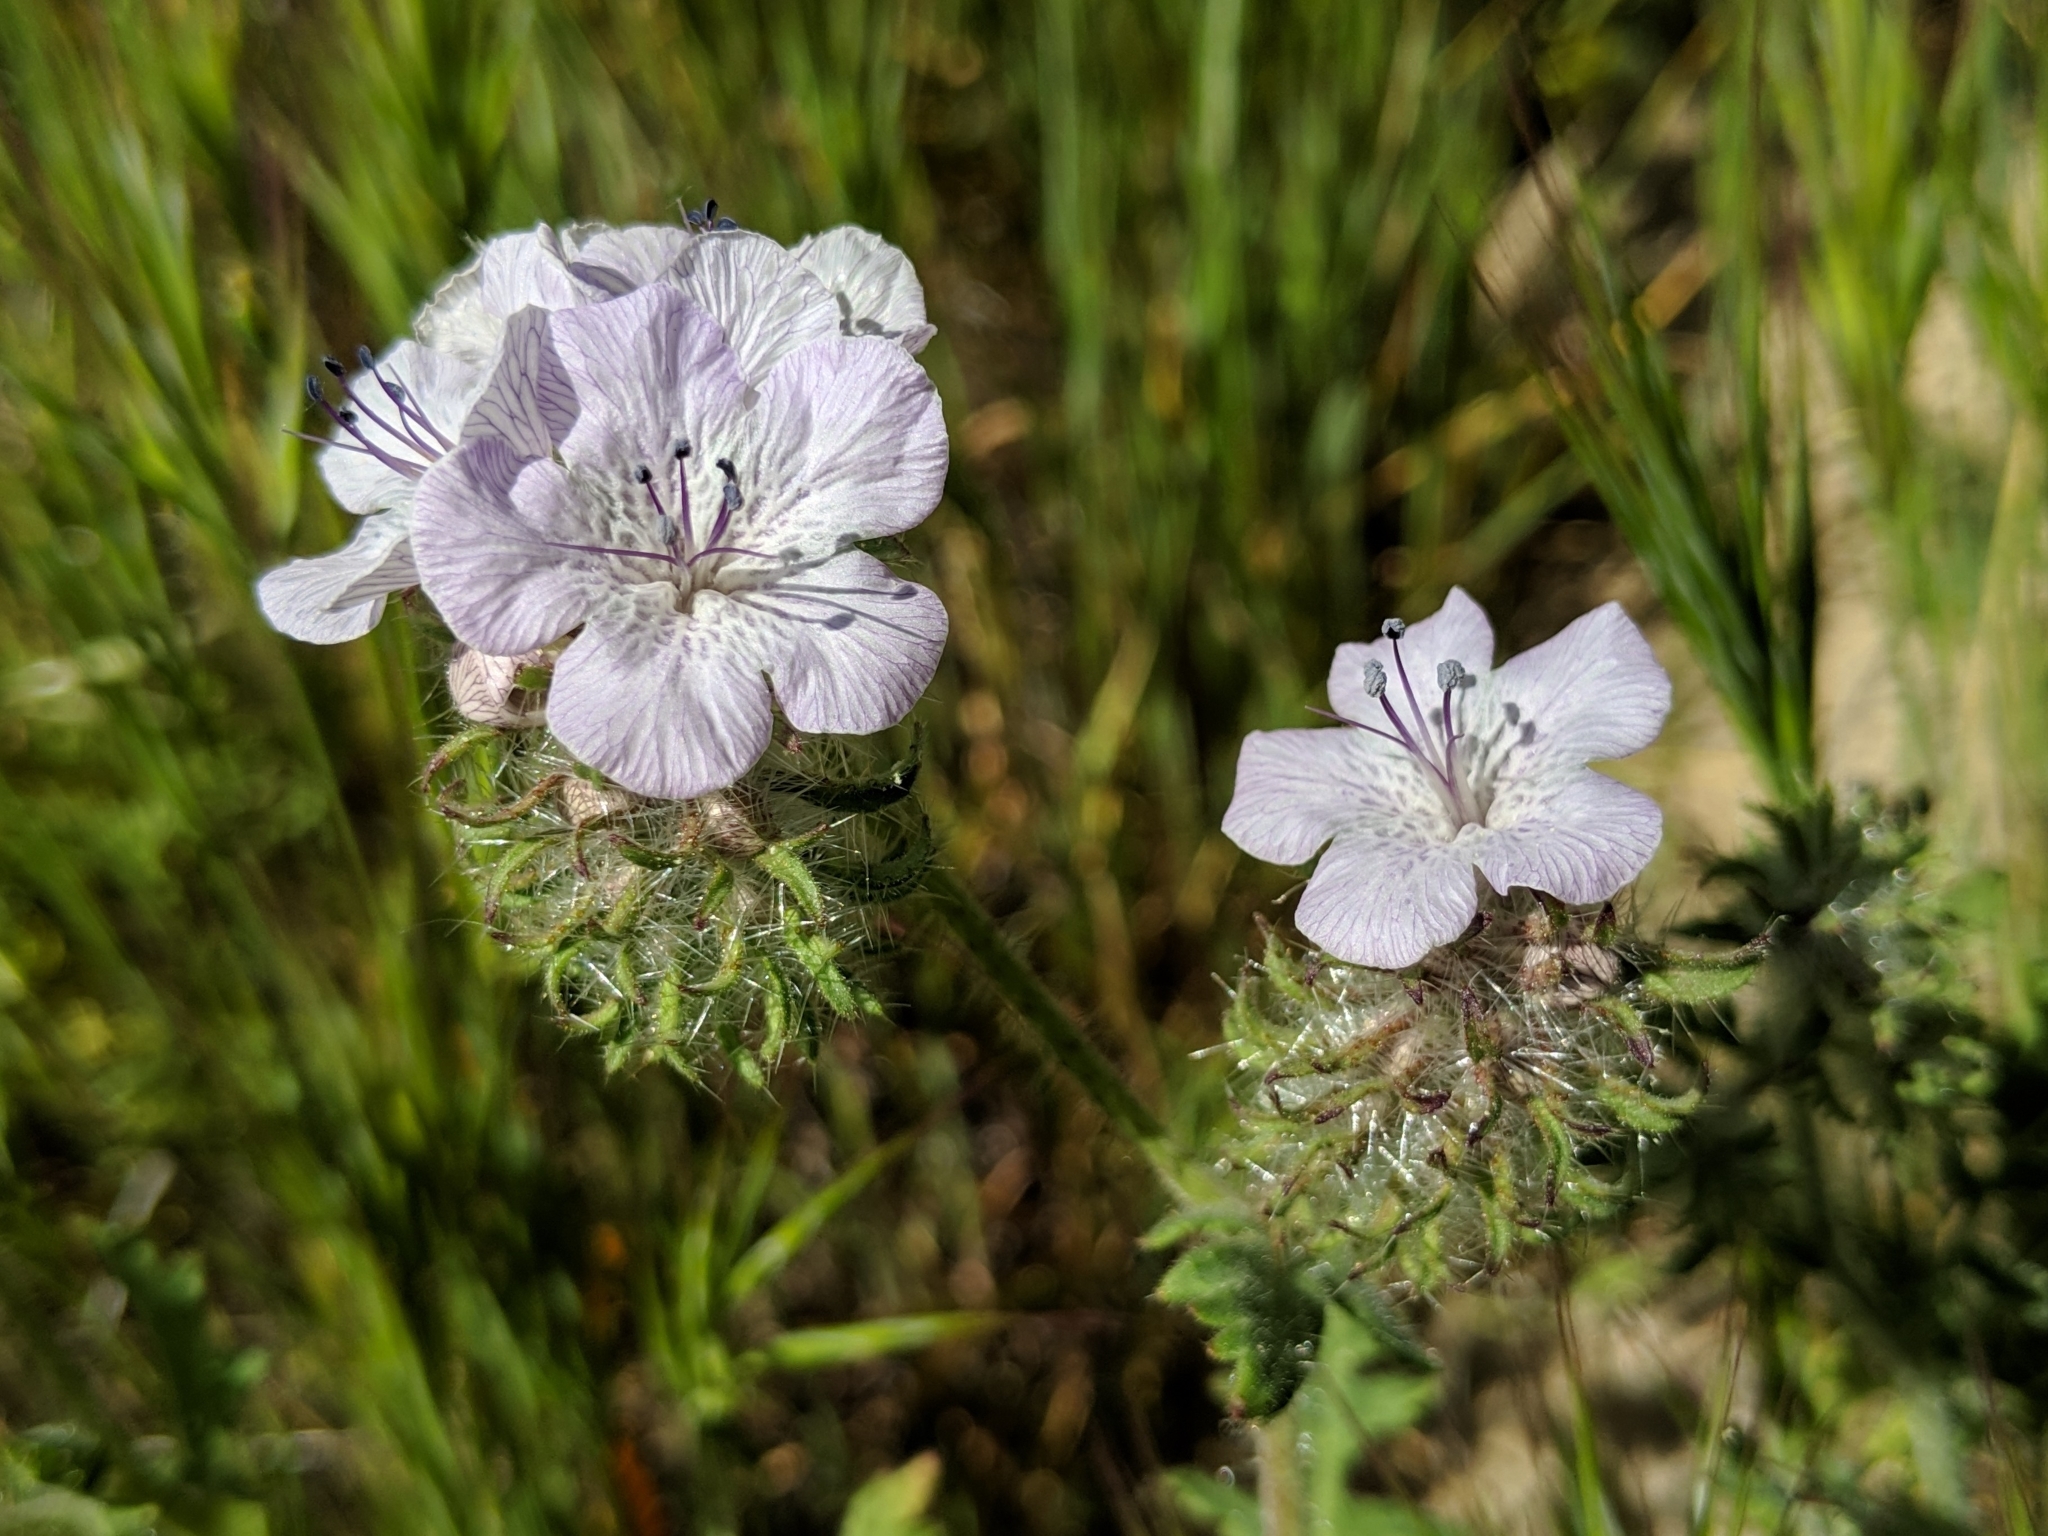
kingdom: Plantae
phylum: Tracheophyta
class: Magnoliopsida
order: Boraginales
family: Hydrophyllaceae
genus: Phacelia
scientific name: Phacelia vallis-mortae
